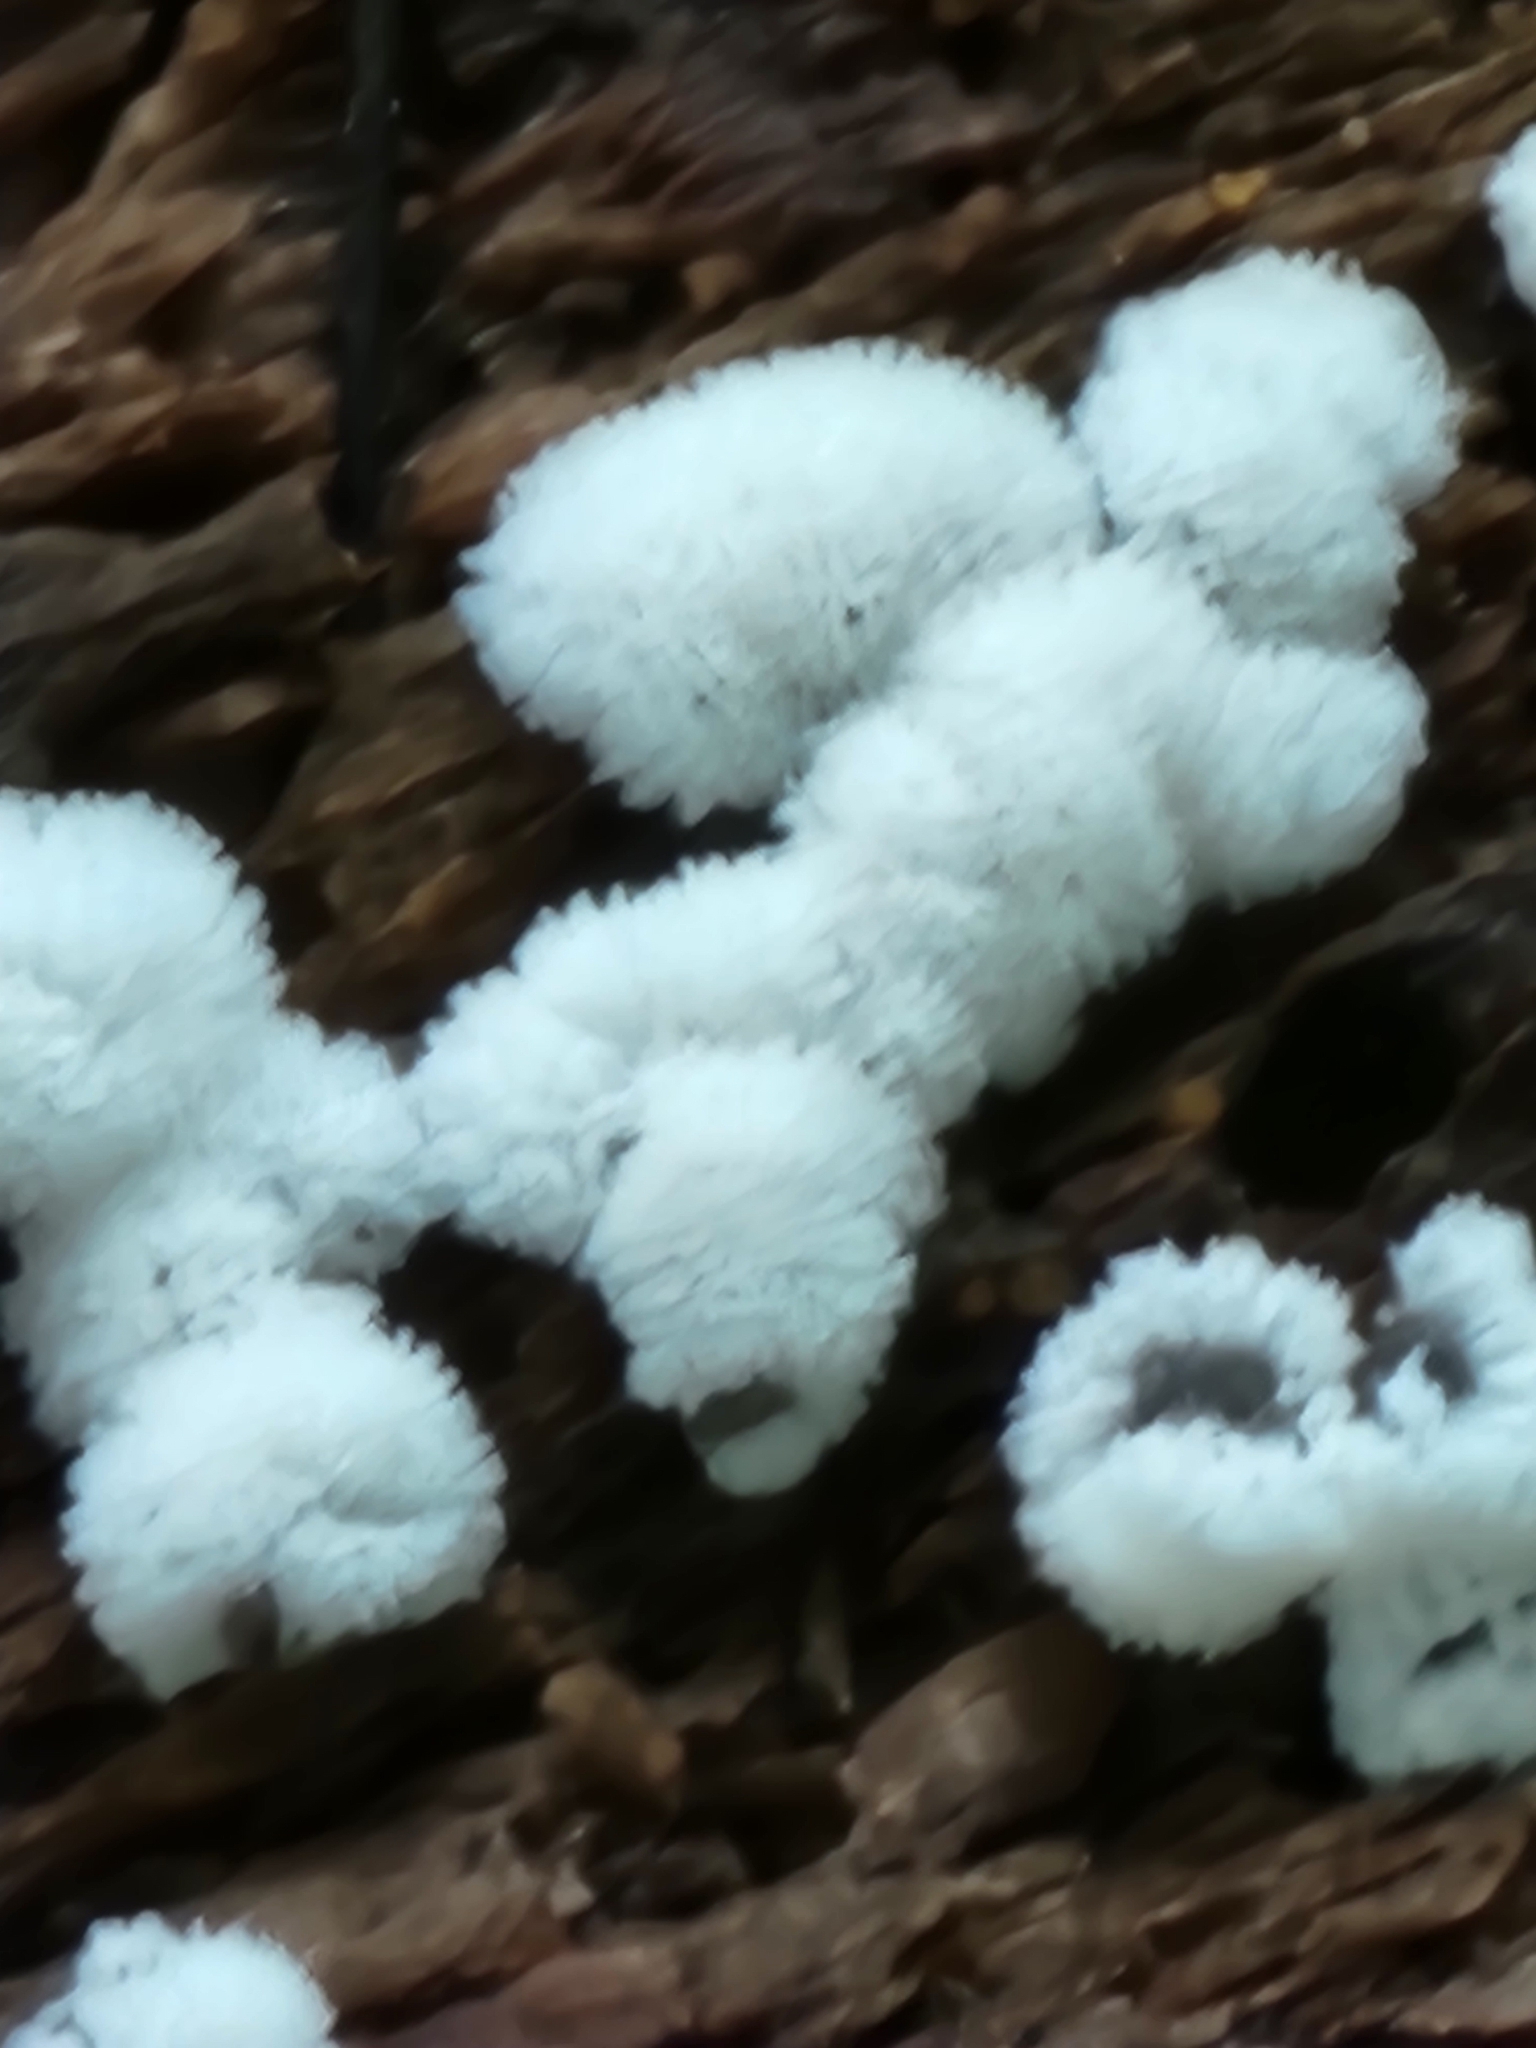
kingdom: Protozoa
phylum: Mycetozoa
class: Protosteliomycetes
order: Ceratiomyxales
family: Ceratiomyxaceae
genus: Ceratiomyxa
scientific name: Ceratiomyxa fruticulosa
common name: Honeycomb coral slime mold
